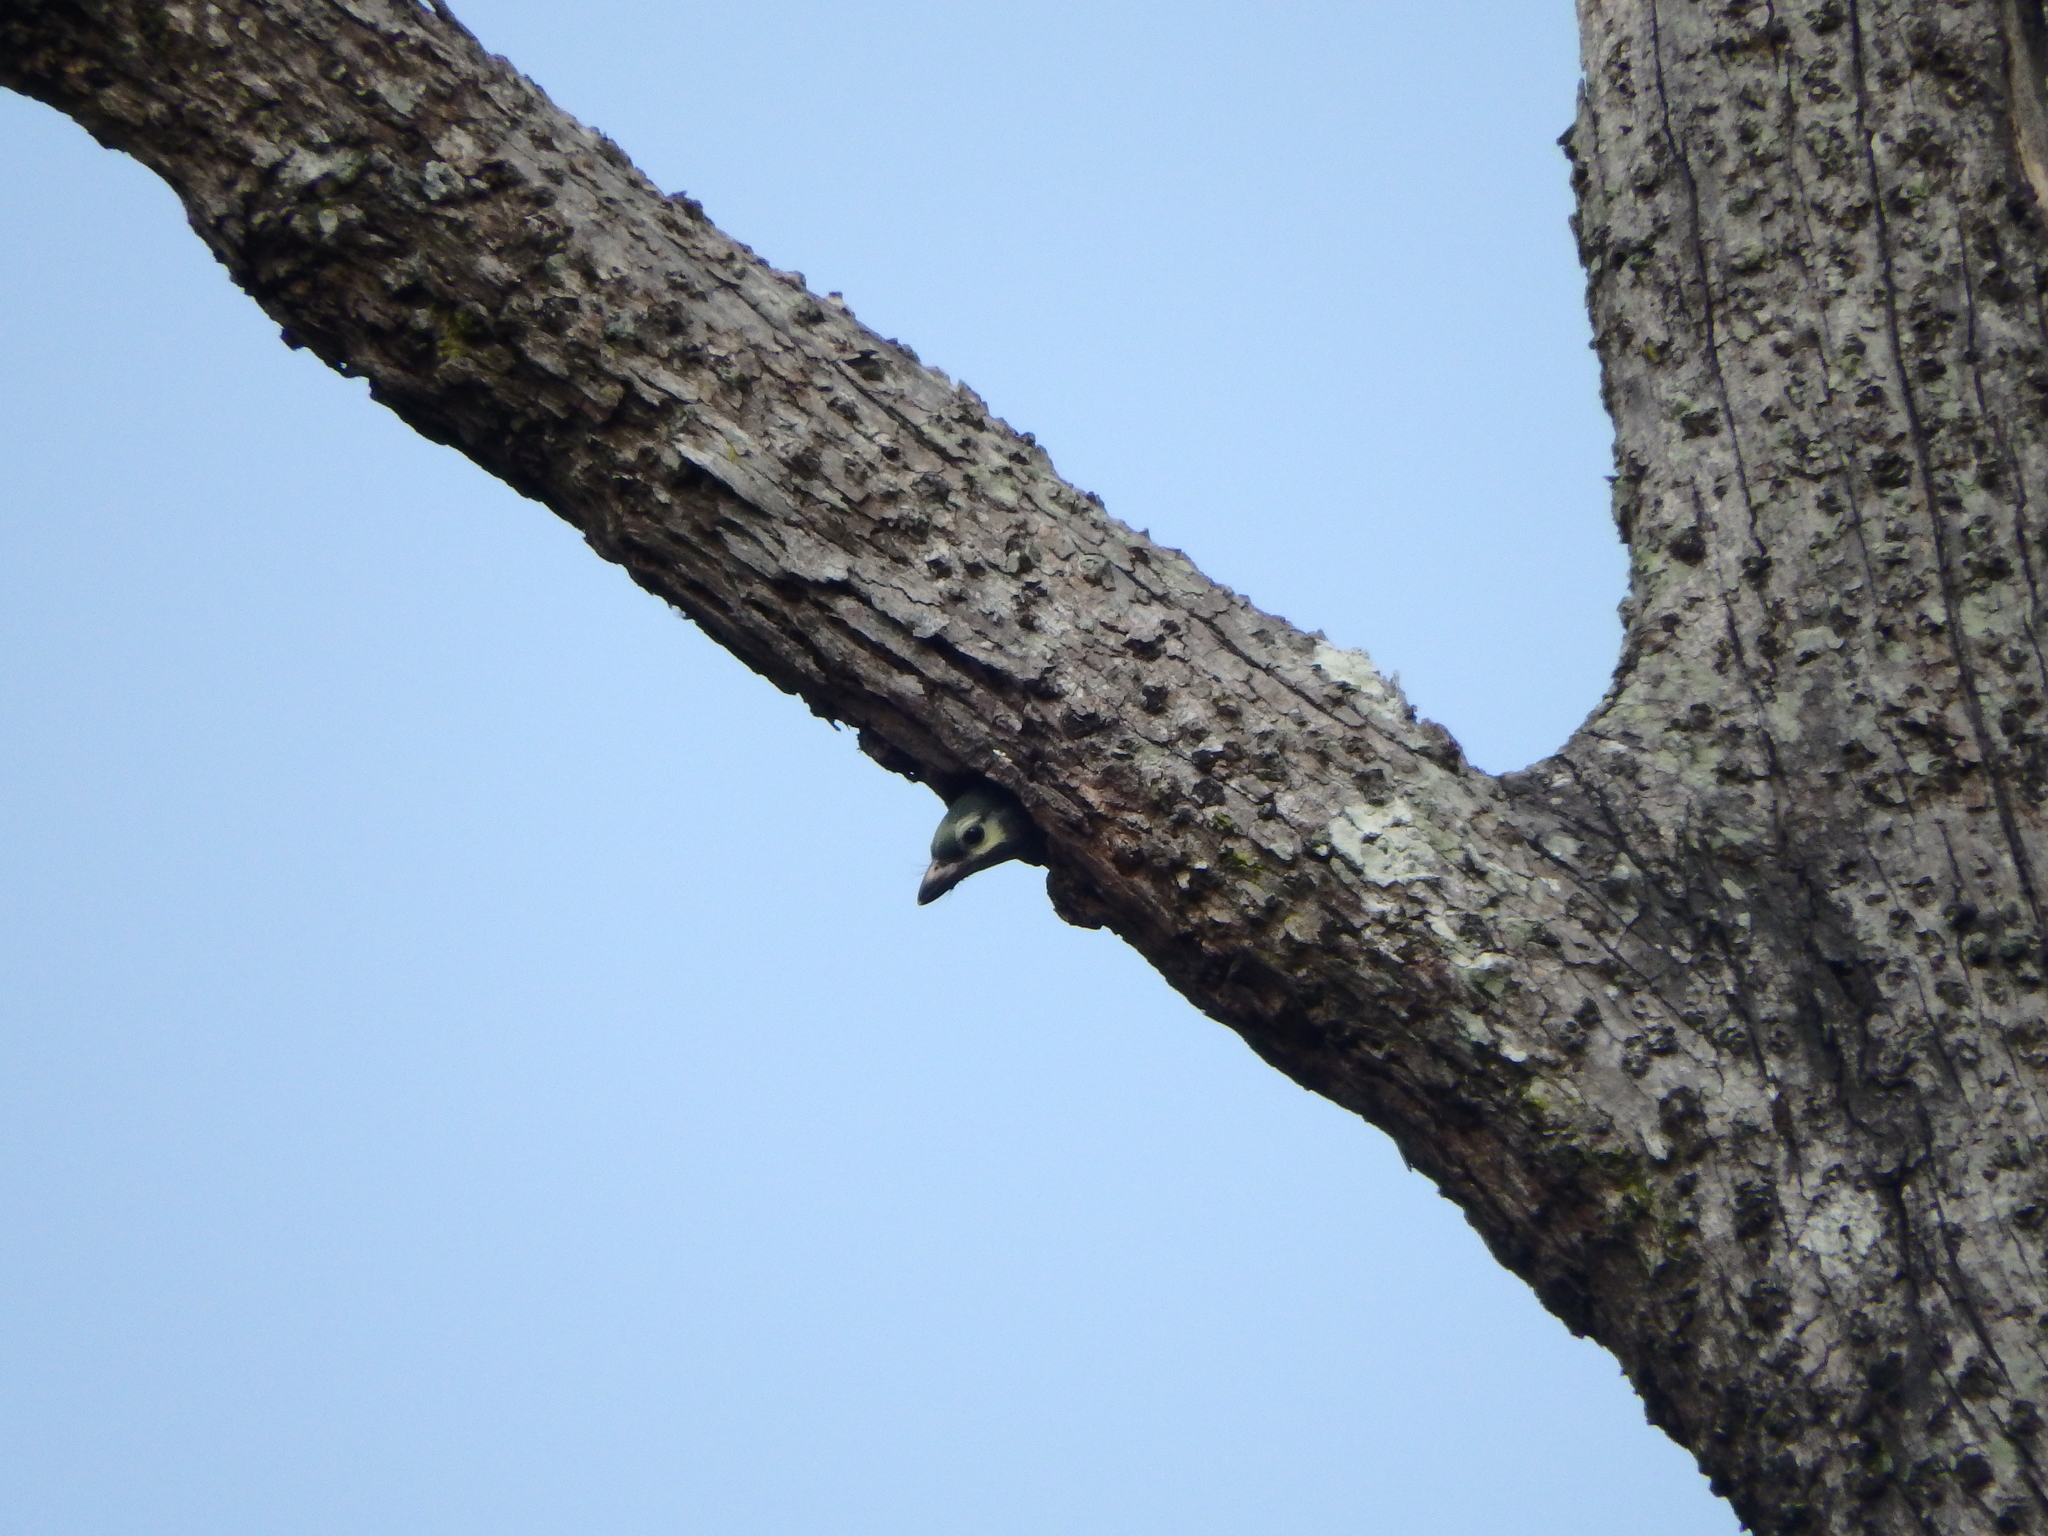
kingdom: Animalia
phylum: Chordata
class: Aves
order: Piciformes
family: Megalaimidae
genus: Psilopogon
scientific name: Psilopogon haemacephalus
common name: Coppersmith barbet
